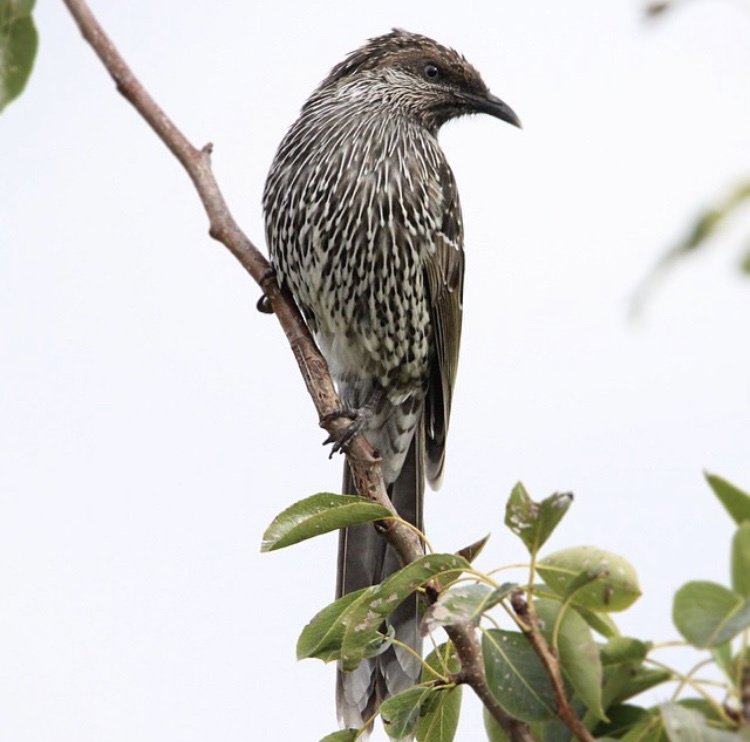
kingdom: Animalia
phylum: Chordata
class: Aves
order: Passeriformes
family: Meliphagidae
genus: Anthochaera
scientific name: Anthochaera chrysoptera
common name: Little wattlebird
